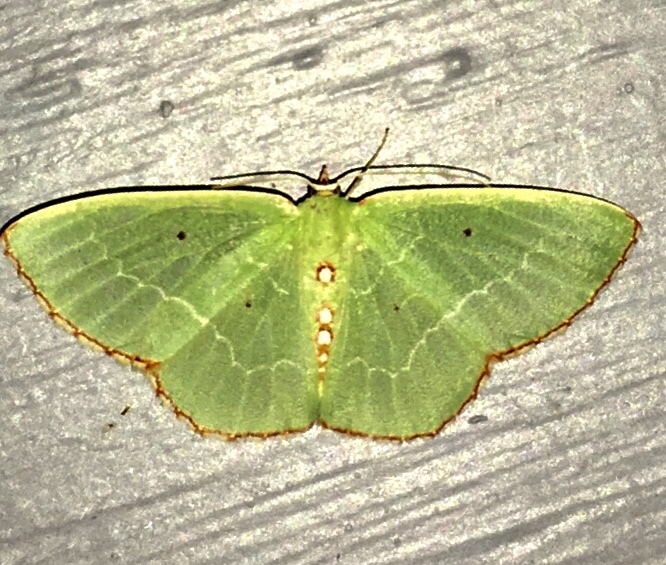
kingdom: Animalia
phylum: Arthropoda
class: Insecta
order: Lepidoptera
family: Geometridae
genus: Nemoria
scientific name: Nemoria lixaria
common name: Red-bordered emerald
